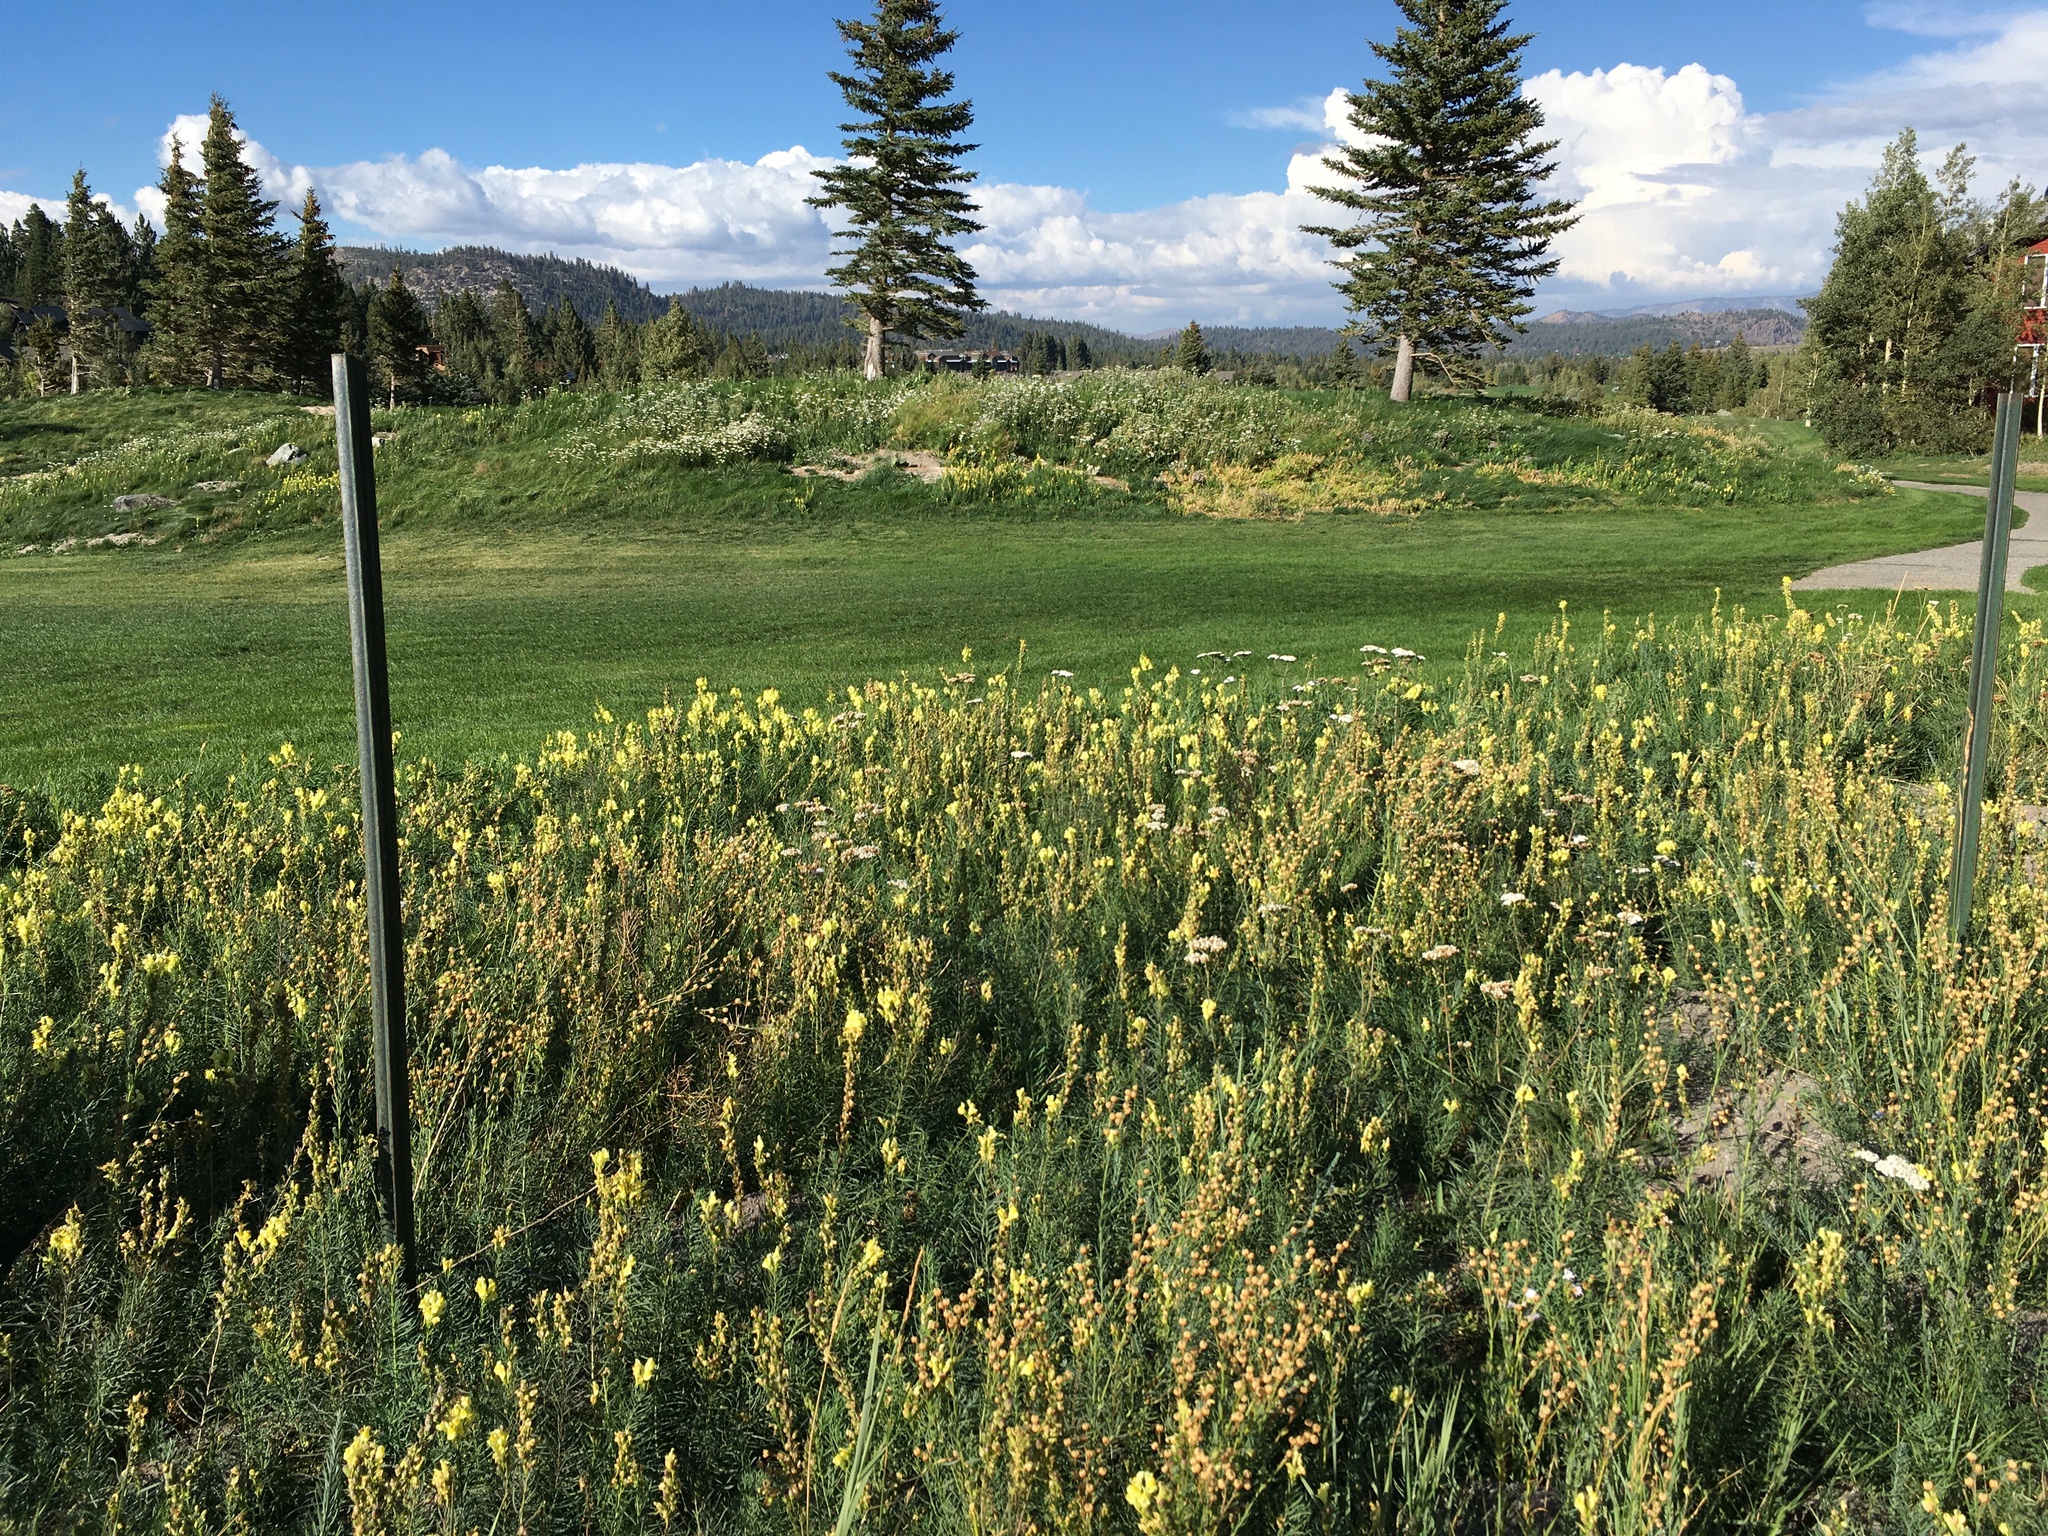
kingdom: Plantae
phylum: Tracheophyta
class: Magnoliopsida
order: Lamiales
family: Plantaginaceae
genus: Linaria
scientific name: Linaria vulgaris
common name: Butter and eggs
